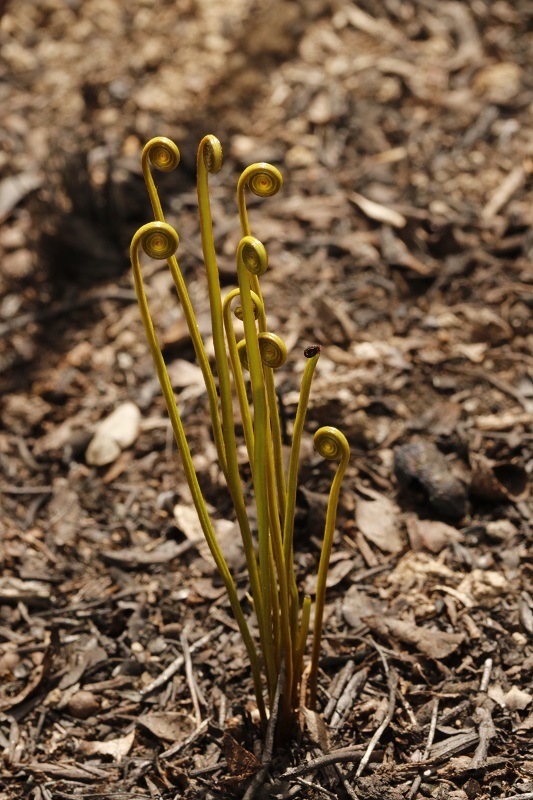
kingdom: Plantae
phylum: Tracheophyta
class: Polypodiopsida
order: Schizaeales
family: Schizaeaceae
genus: Schizaea
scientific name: Schizaea pectinata
